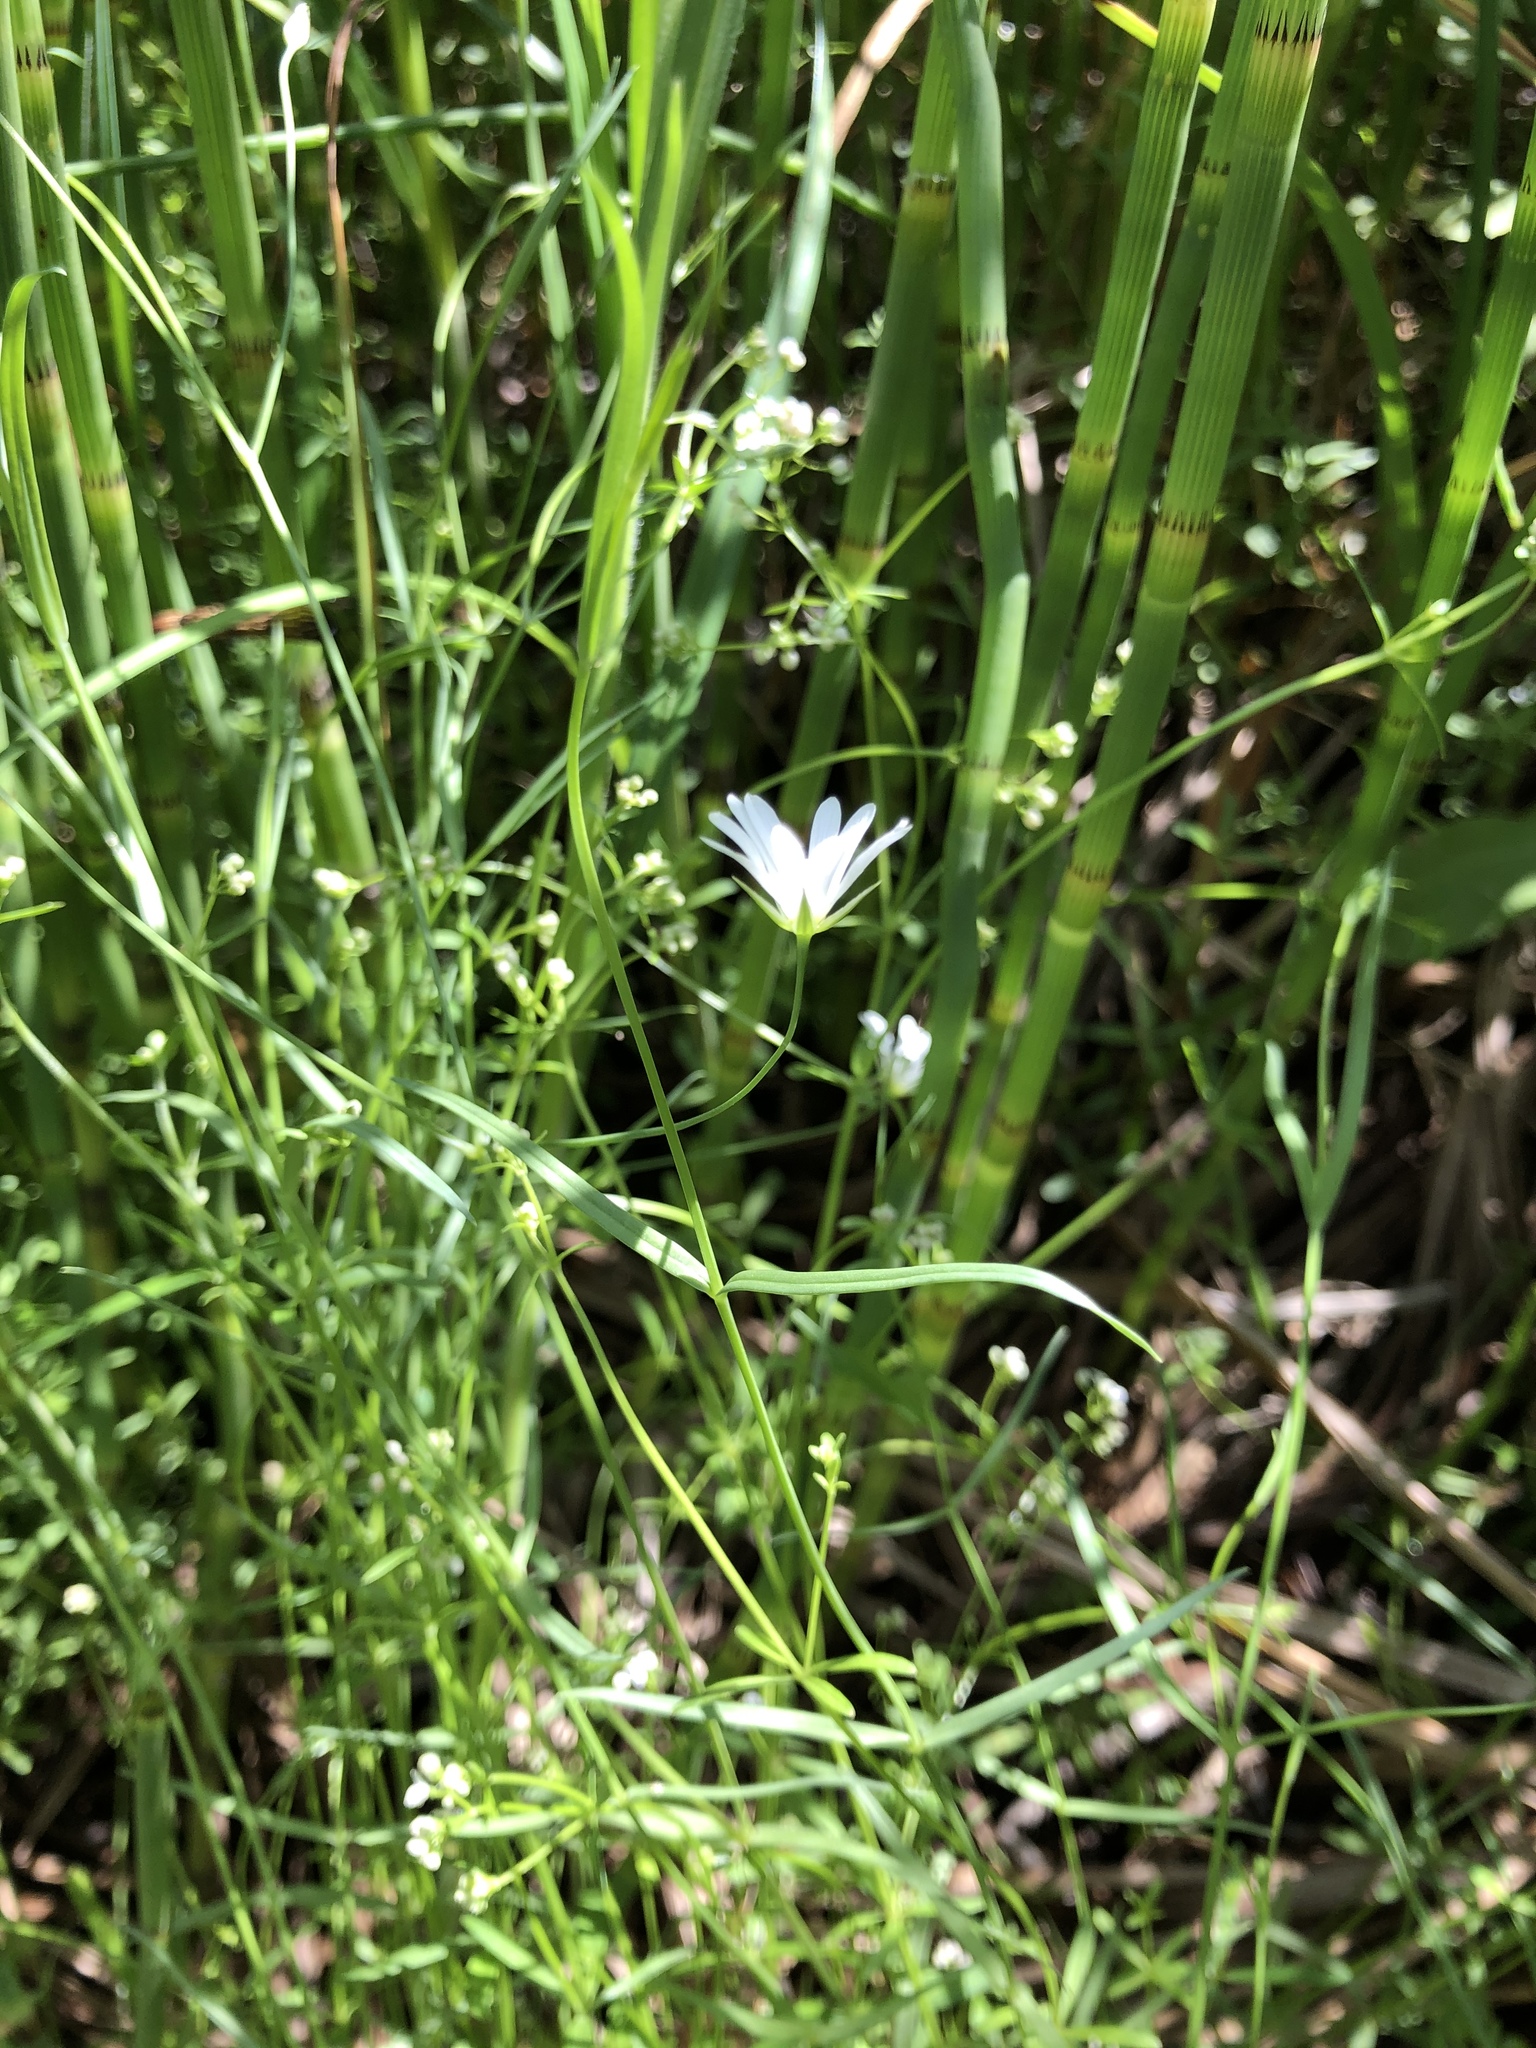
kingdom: Plantae
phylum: Tracheophyta
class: Magnoliopsida
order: Caryophyllales
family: Caryophyllaceae
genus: Stellaria
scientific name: Stellaria palustris
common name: Marsh stitchwort
